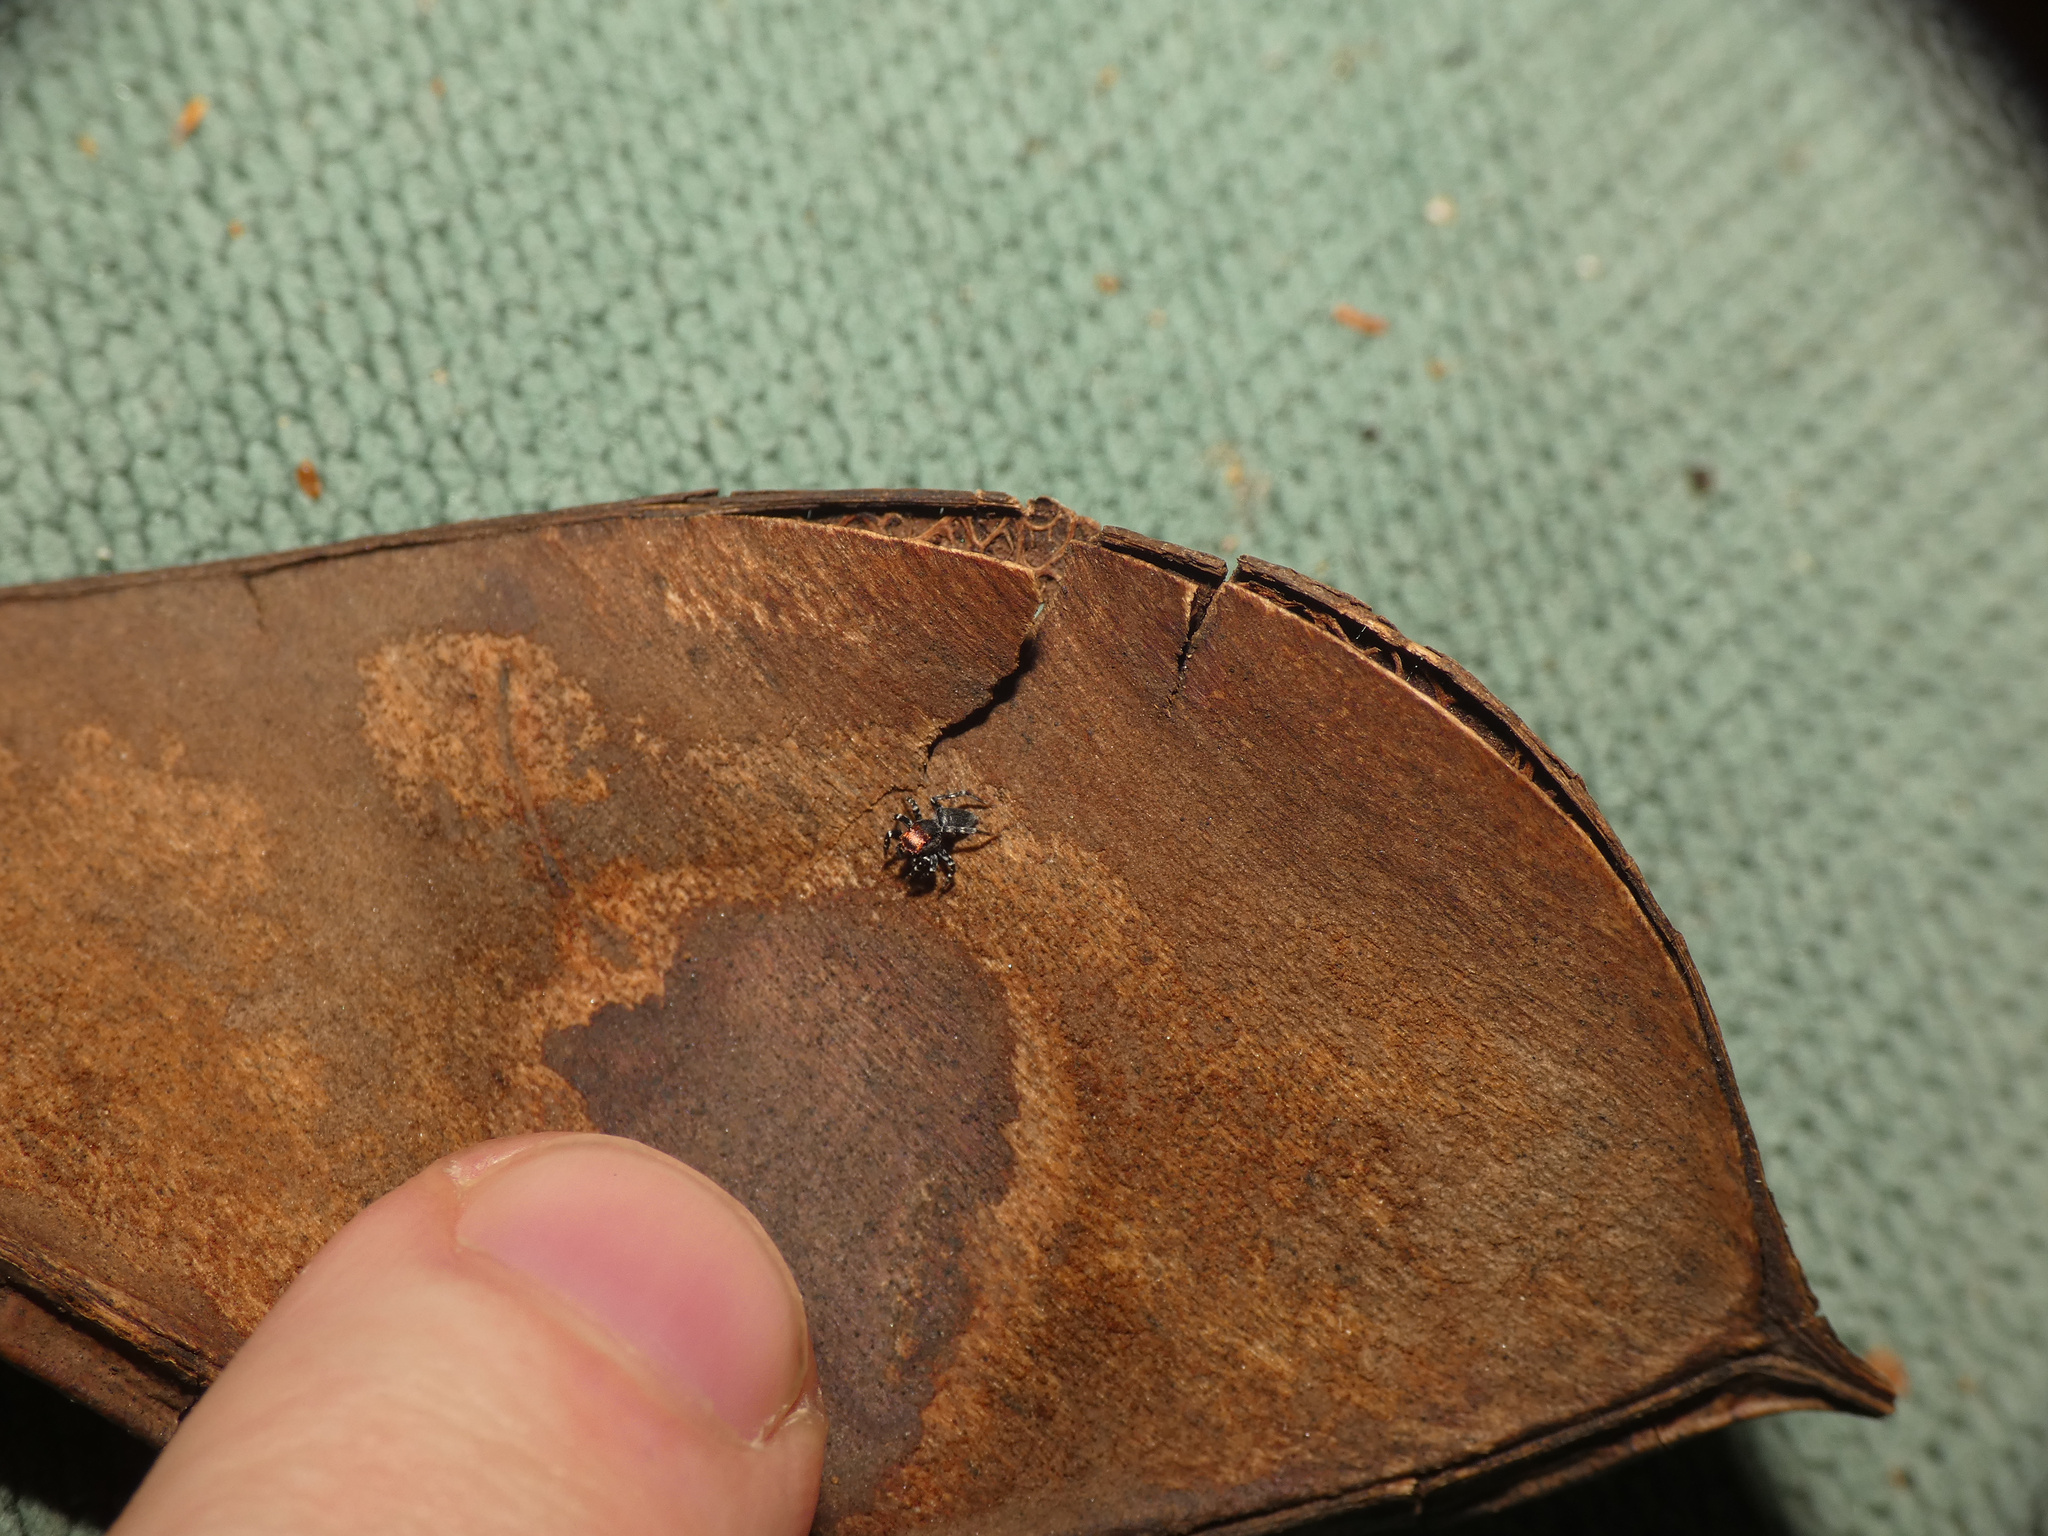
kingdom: Animalia
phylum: Arthropoda
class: Arachnida
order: Araneae
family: Salticidae
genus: Phlegra
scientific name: Phlegra certa
